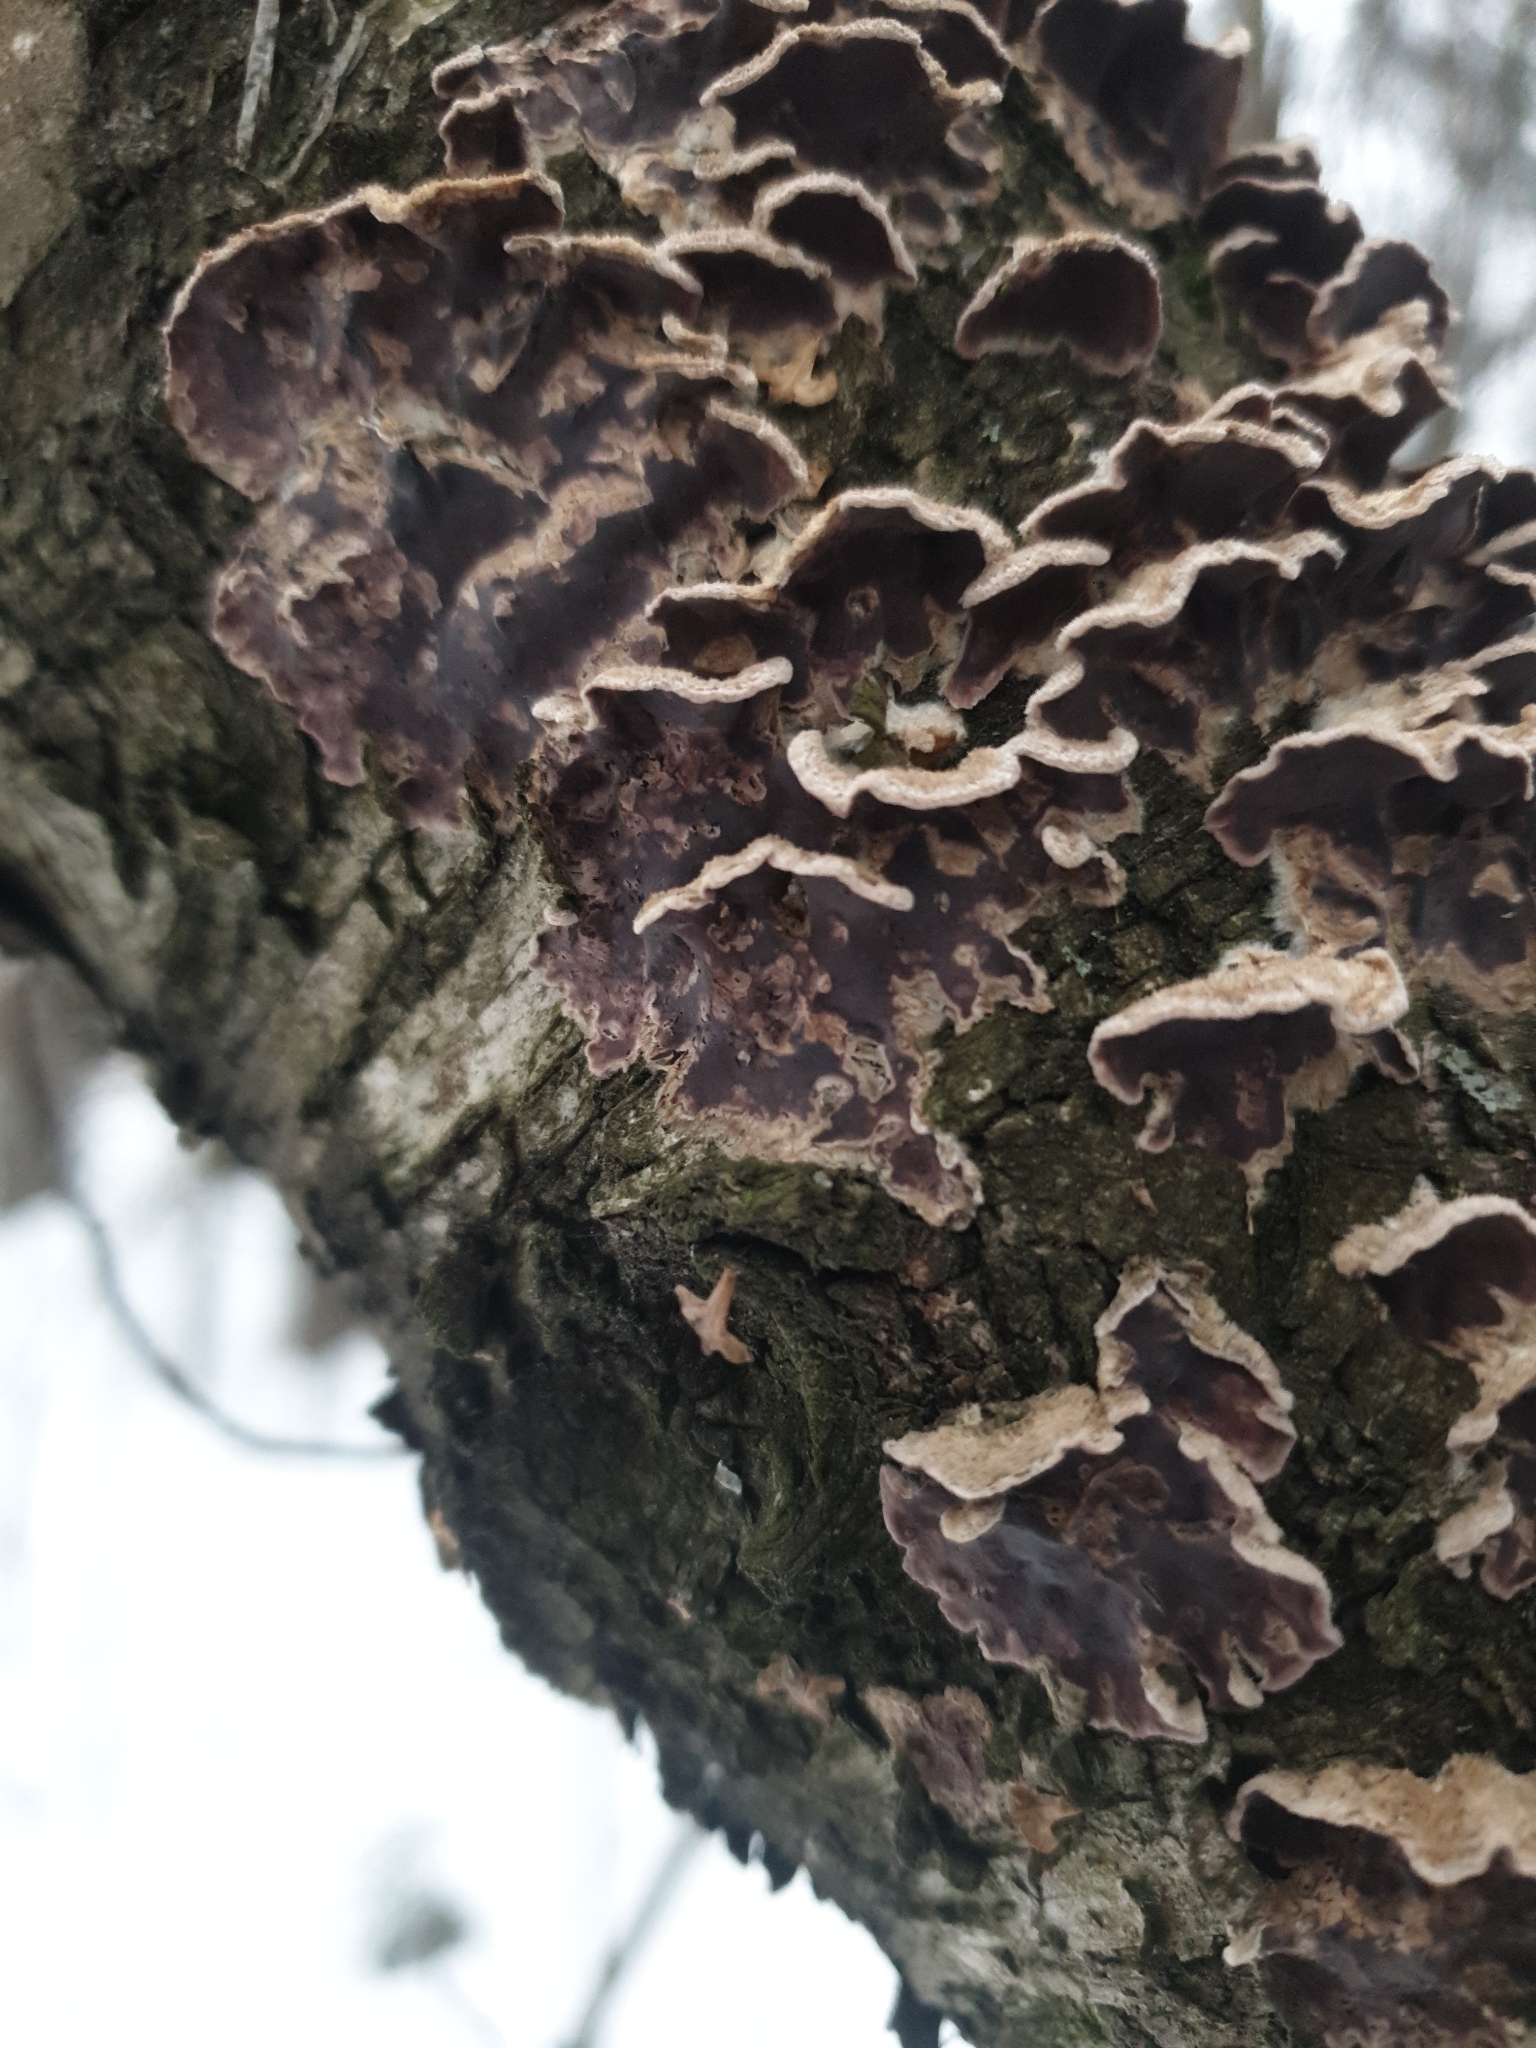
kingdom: Fungi
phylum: Basidiomycota
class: Agaricomycetes
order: Agaricales
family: Cyphellaceae
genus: Chondrostereum
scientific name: Chondrostereum purpureum
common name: Silver leaf disease
